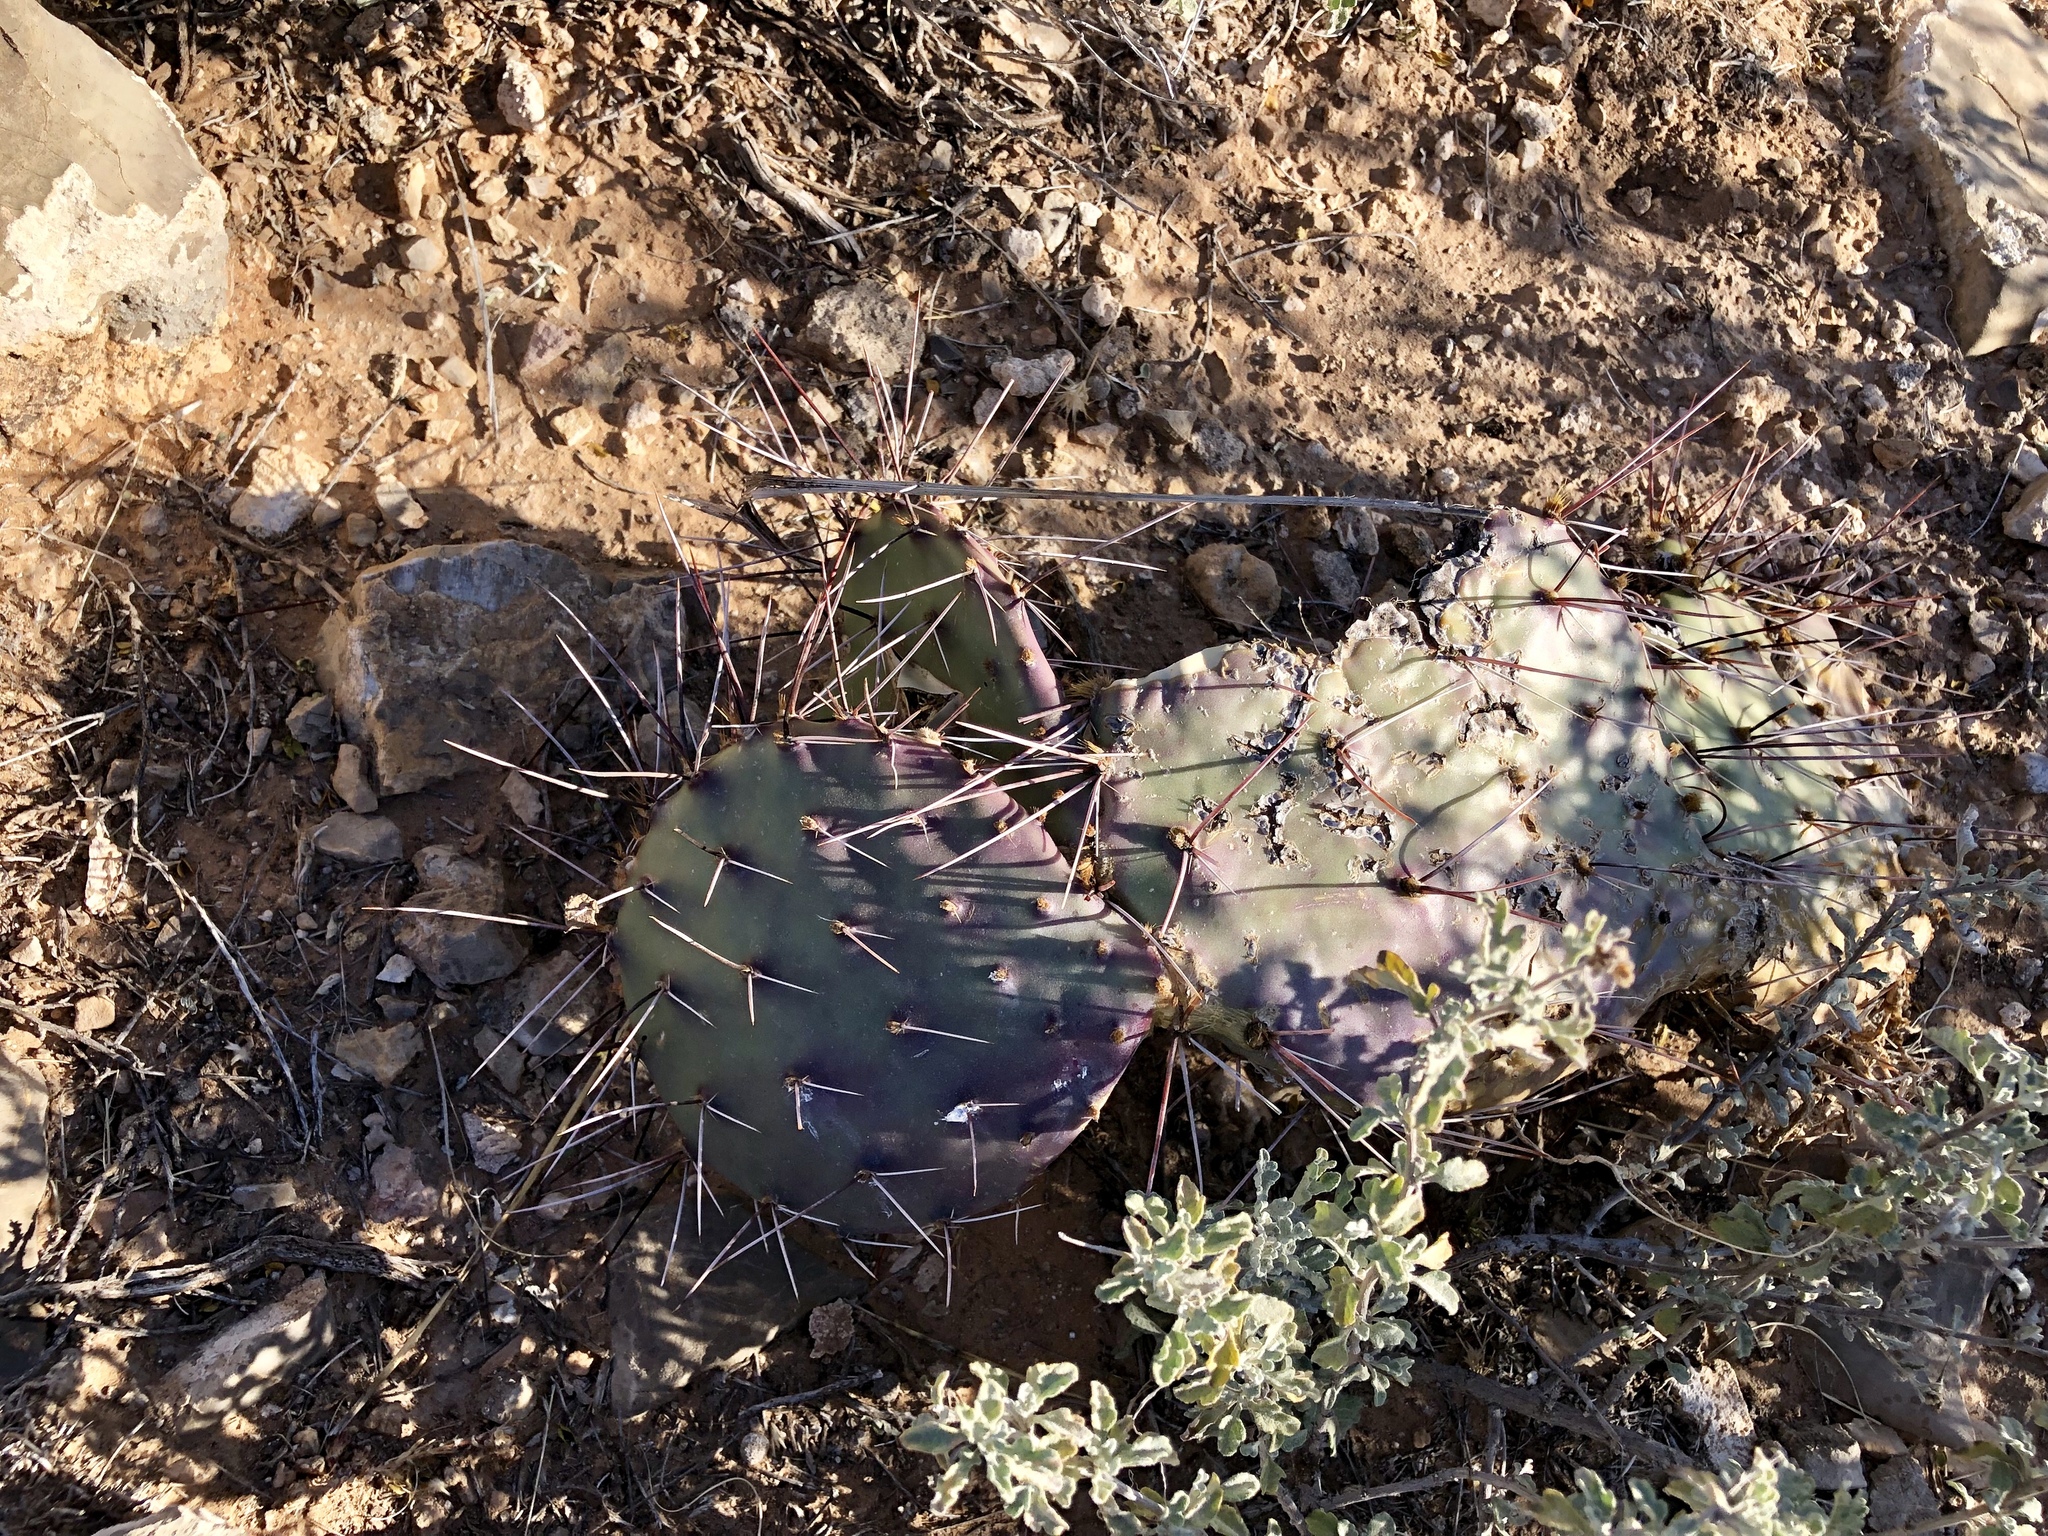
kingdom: Plantae
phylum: Tracheophyta
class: Magnoliopsida
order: Caryophyllales
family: Cactaceae
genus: Opuntia
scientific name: Opuntia phaeacantha
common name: New mexico prickly-pear
